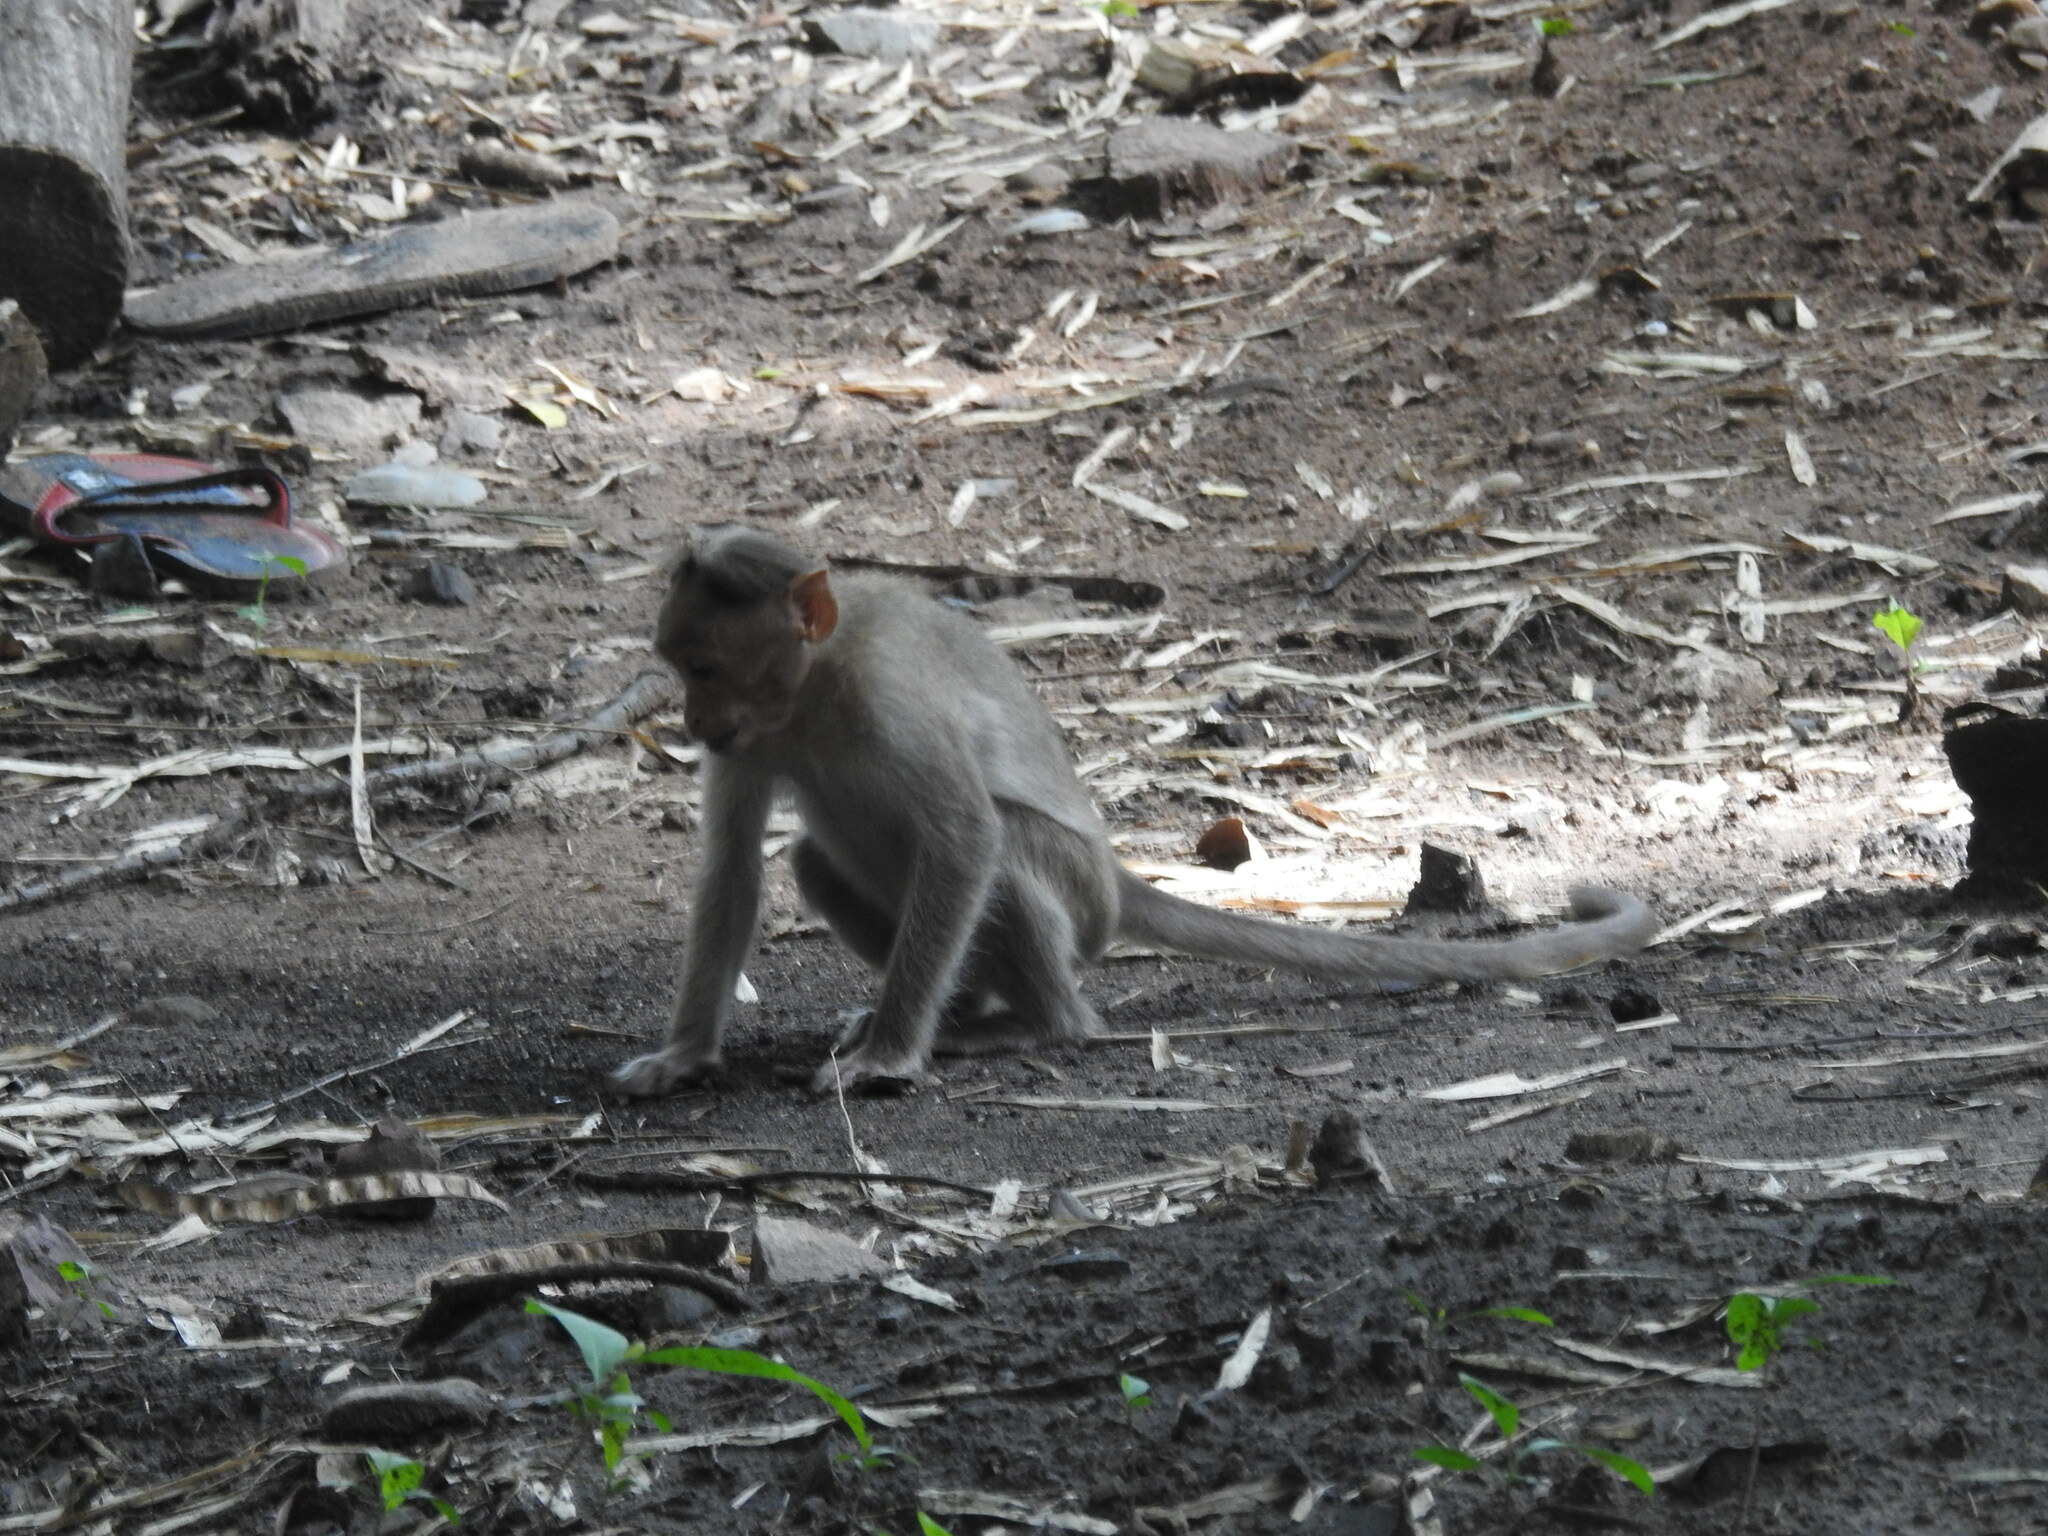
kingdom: Animalia
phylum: Chordata
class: Mammalia
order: Primates
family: Cercopithecidae
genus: Macaca
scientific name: Macaca radiata
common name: Bonnet macaque
